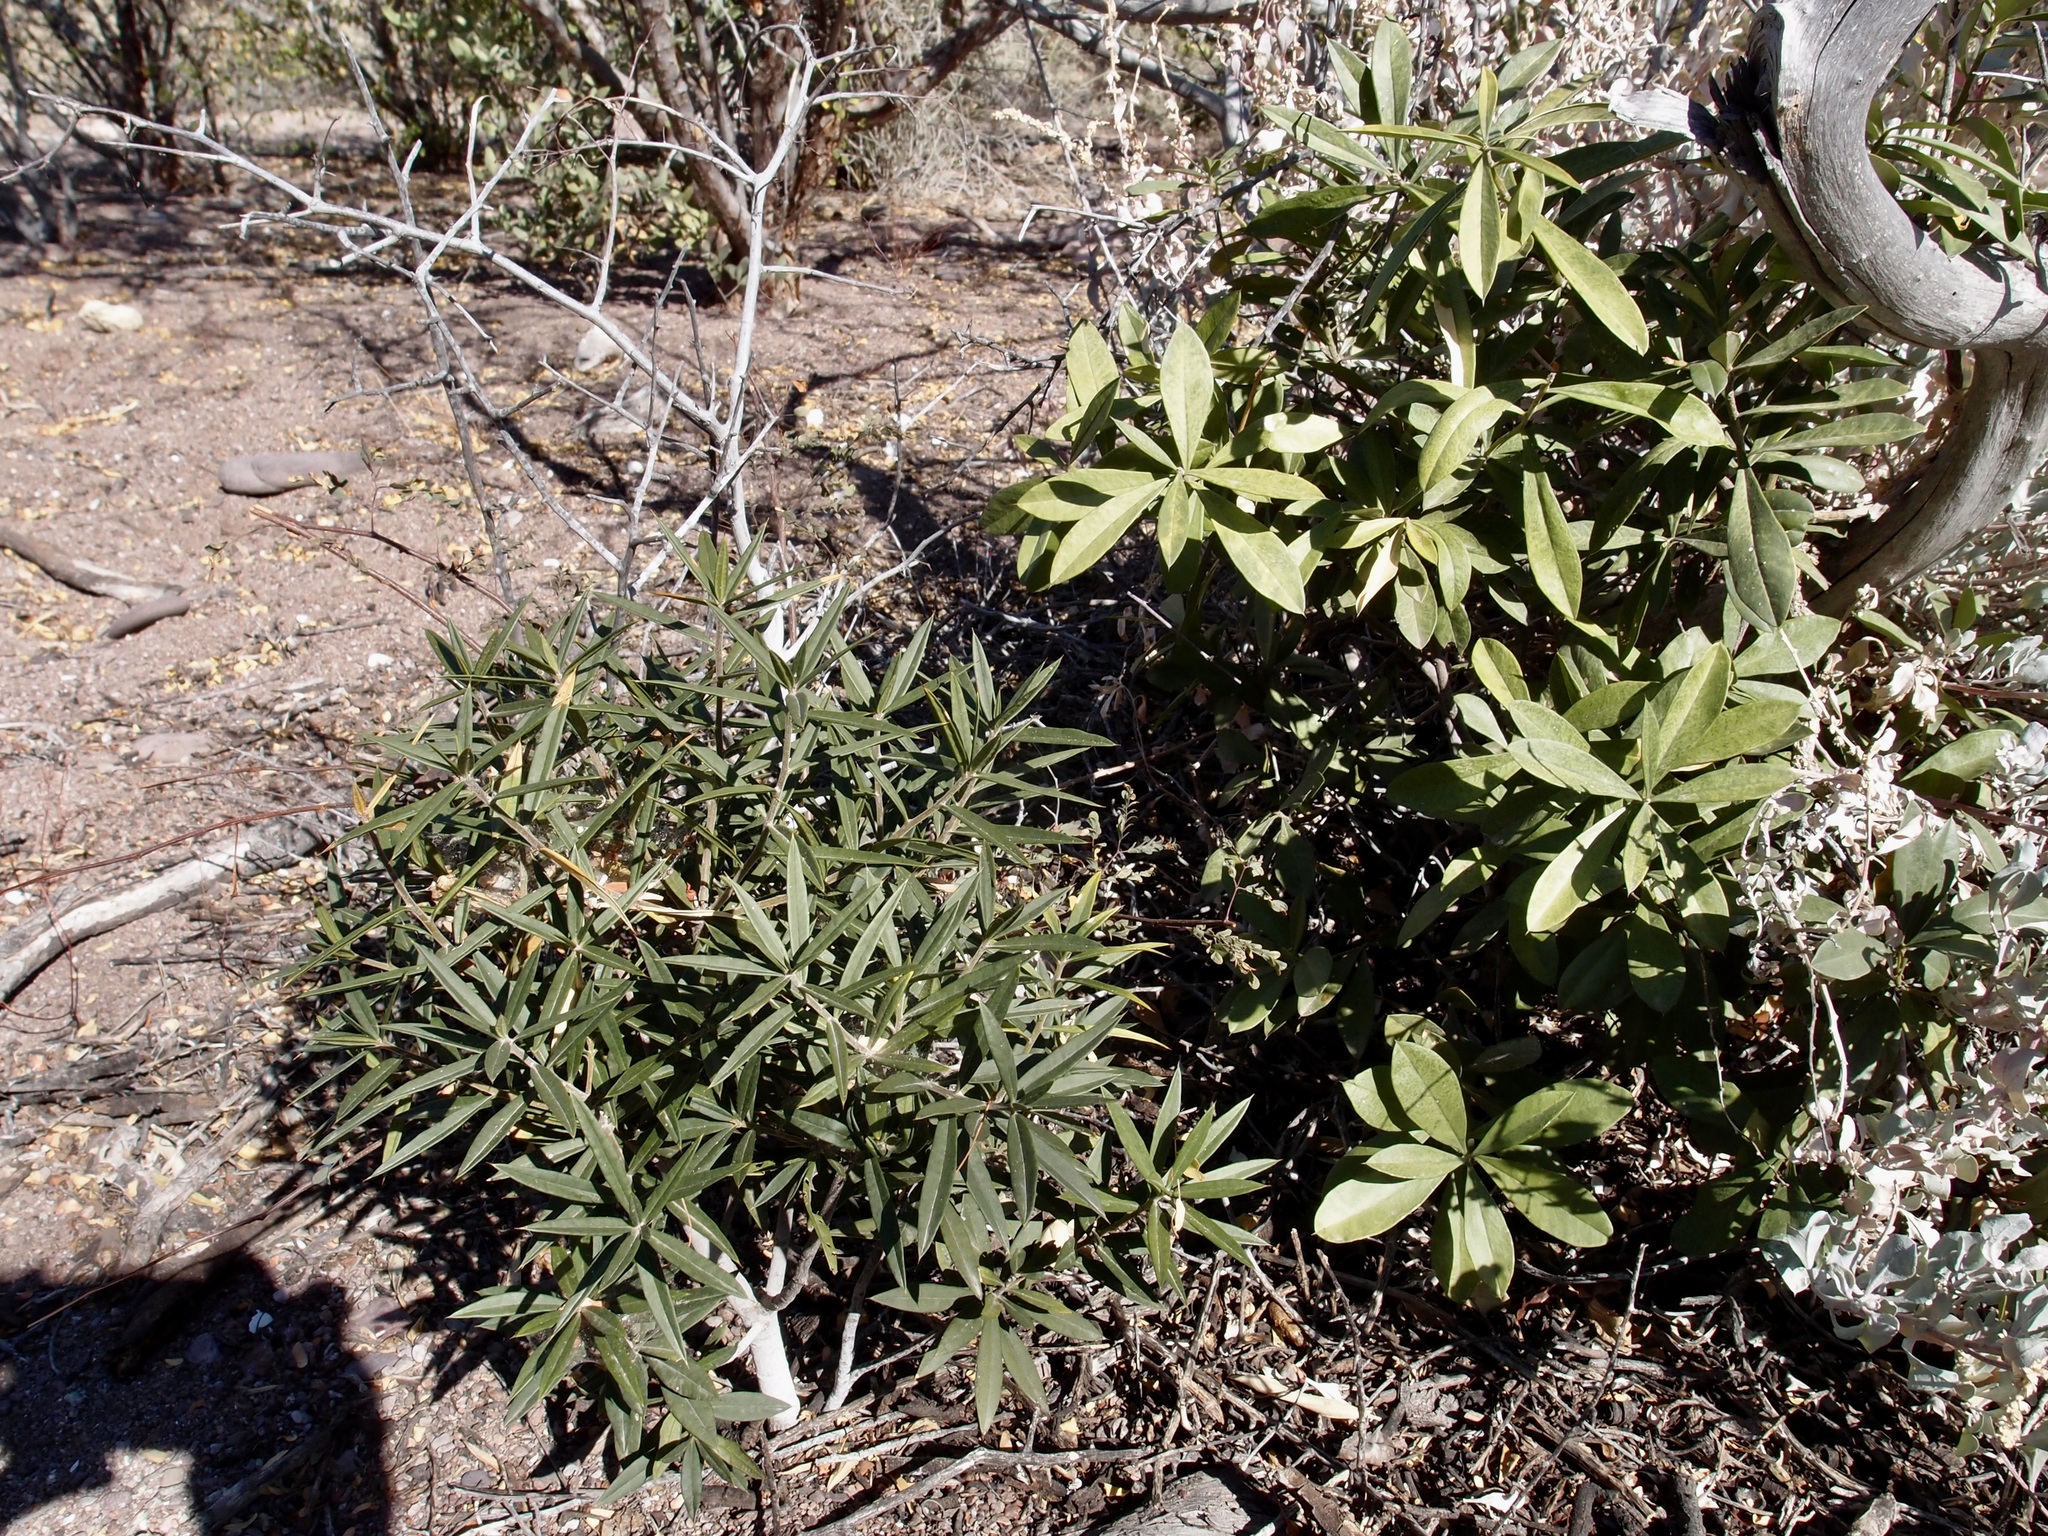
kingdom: Plantae
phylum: Tracheophyta
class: Magnoliopsida
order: Ericales
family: Primulaceae
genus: Bonellia
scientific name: Bonellia macrocarpa
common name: Primrose
